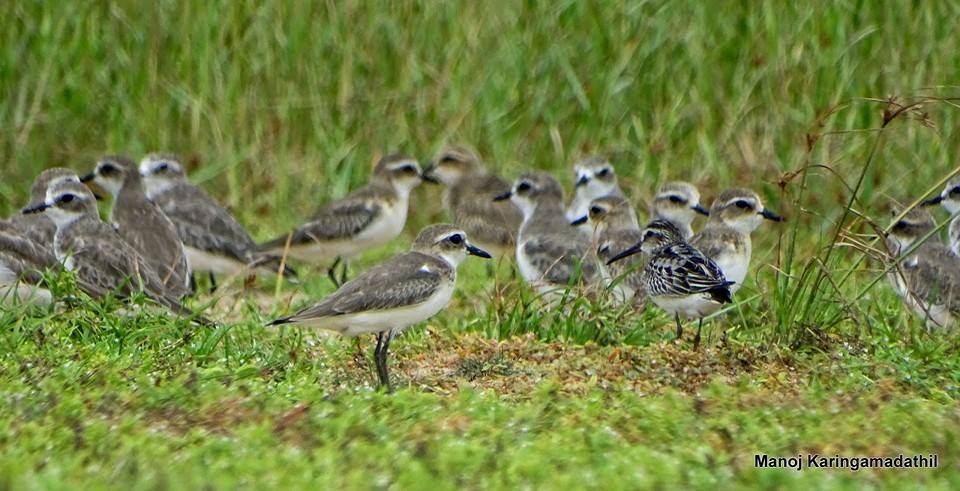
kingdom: Animalia
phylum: Chordata
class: Aves
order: Charadriiformes
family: Scolopacidae
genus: Calidris
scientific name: Calidris falcinellus
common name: Broad-billed sandpiper
